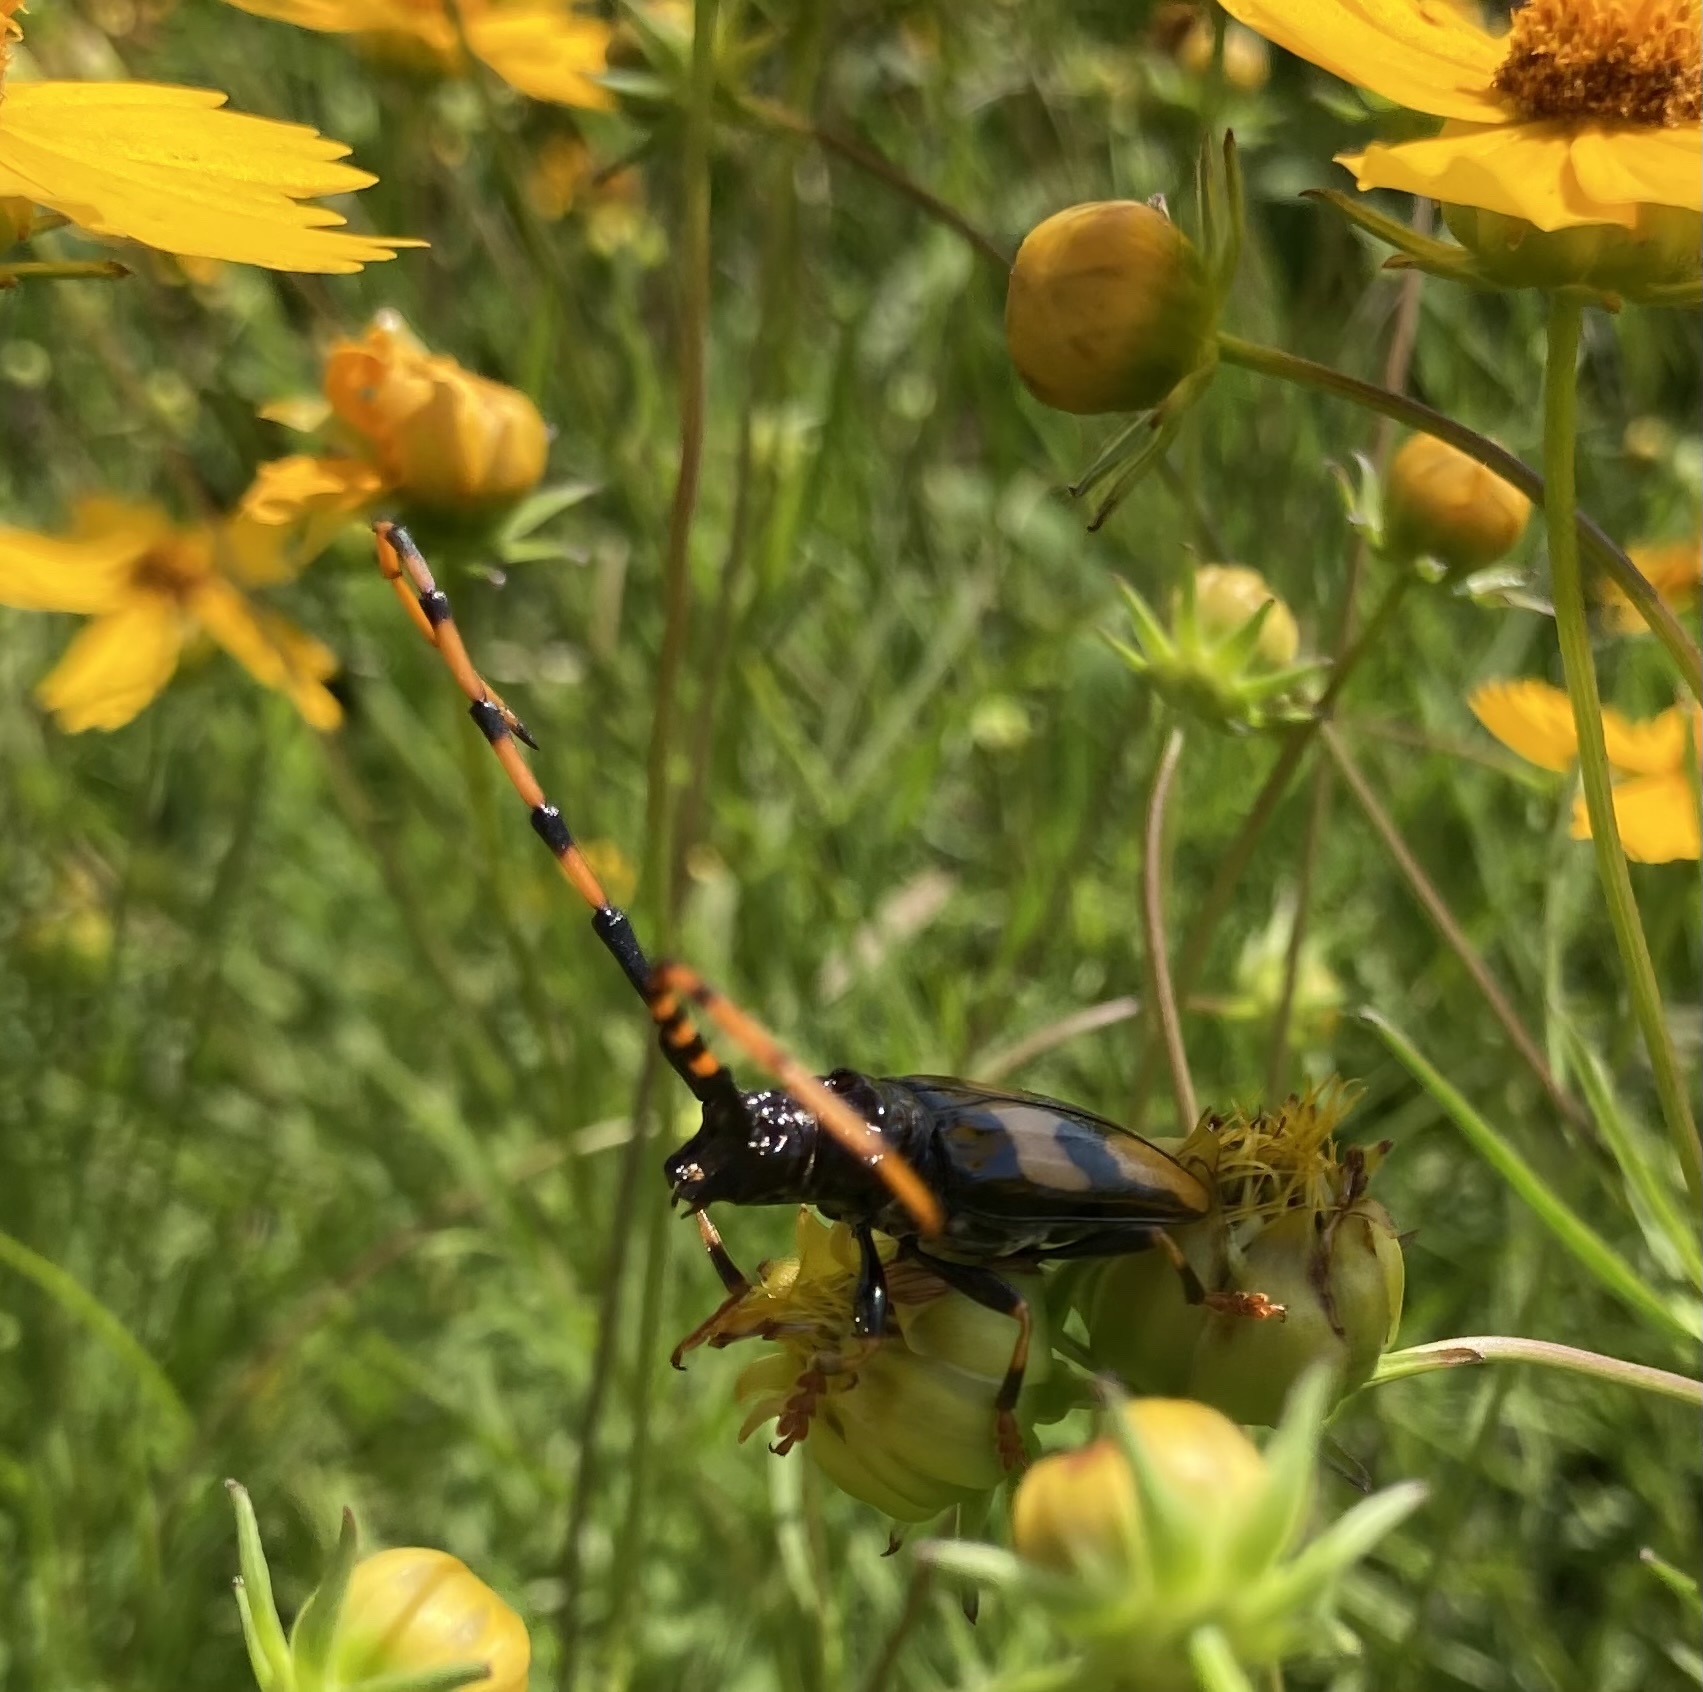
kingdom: Animalia
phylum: Arthropoda
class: Insecta
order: Coleoptera
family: Cerambycidae
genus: Trachyderes
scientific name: Trachyderes mandibularis
